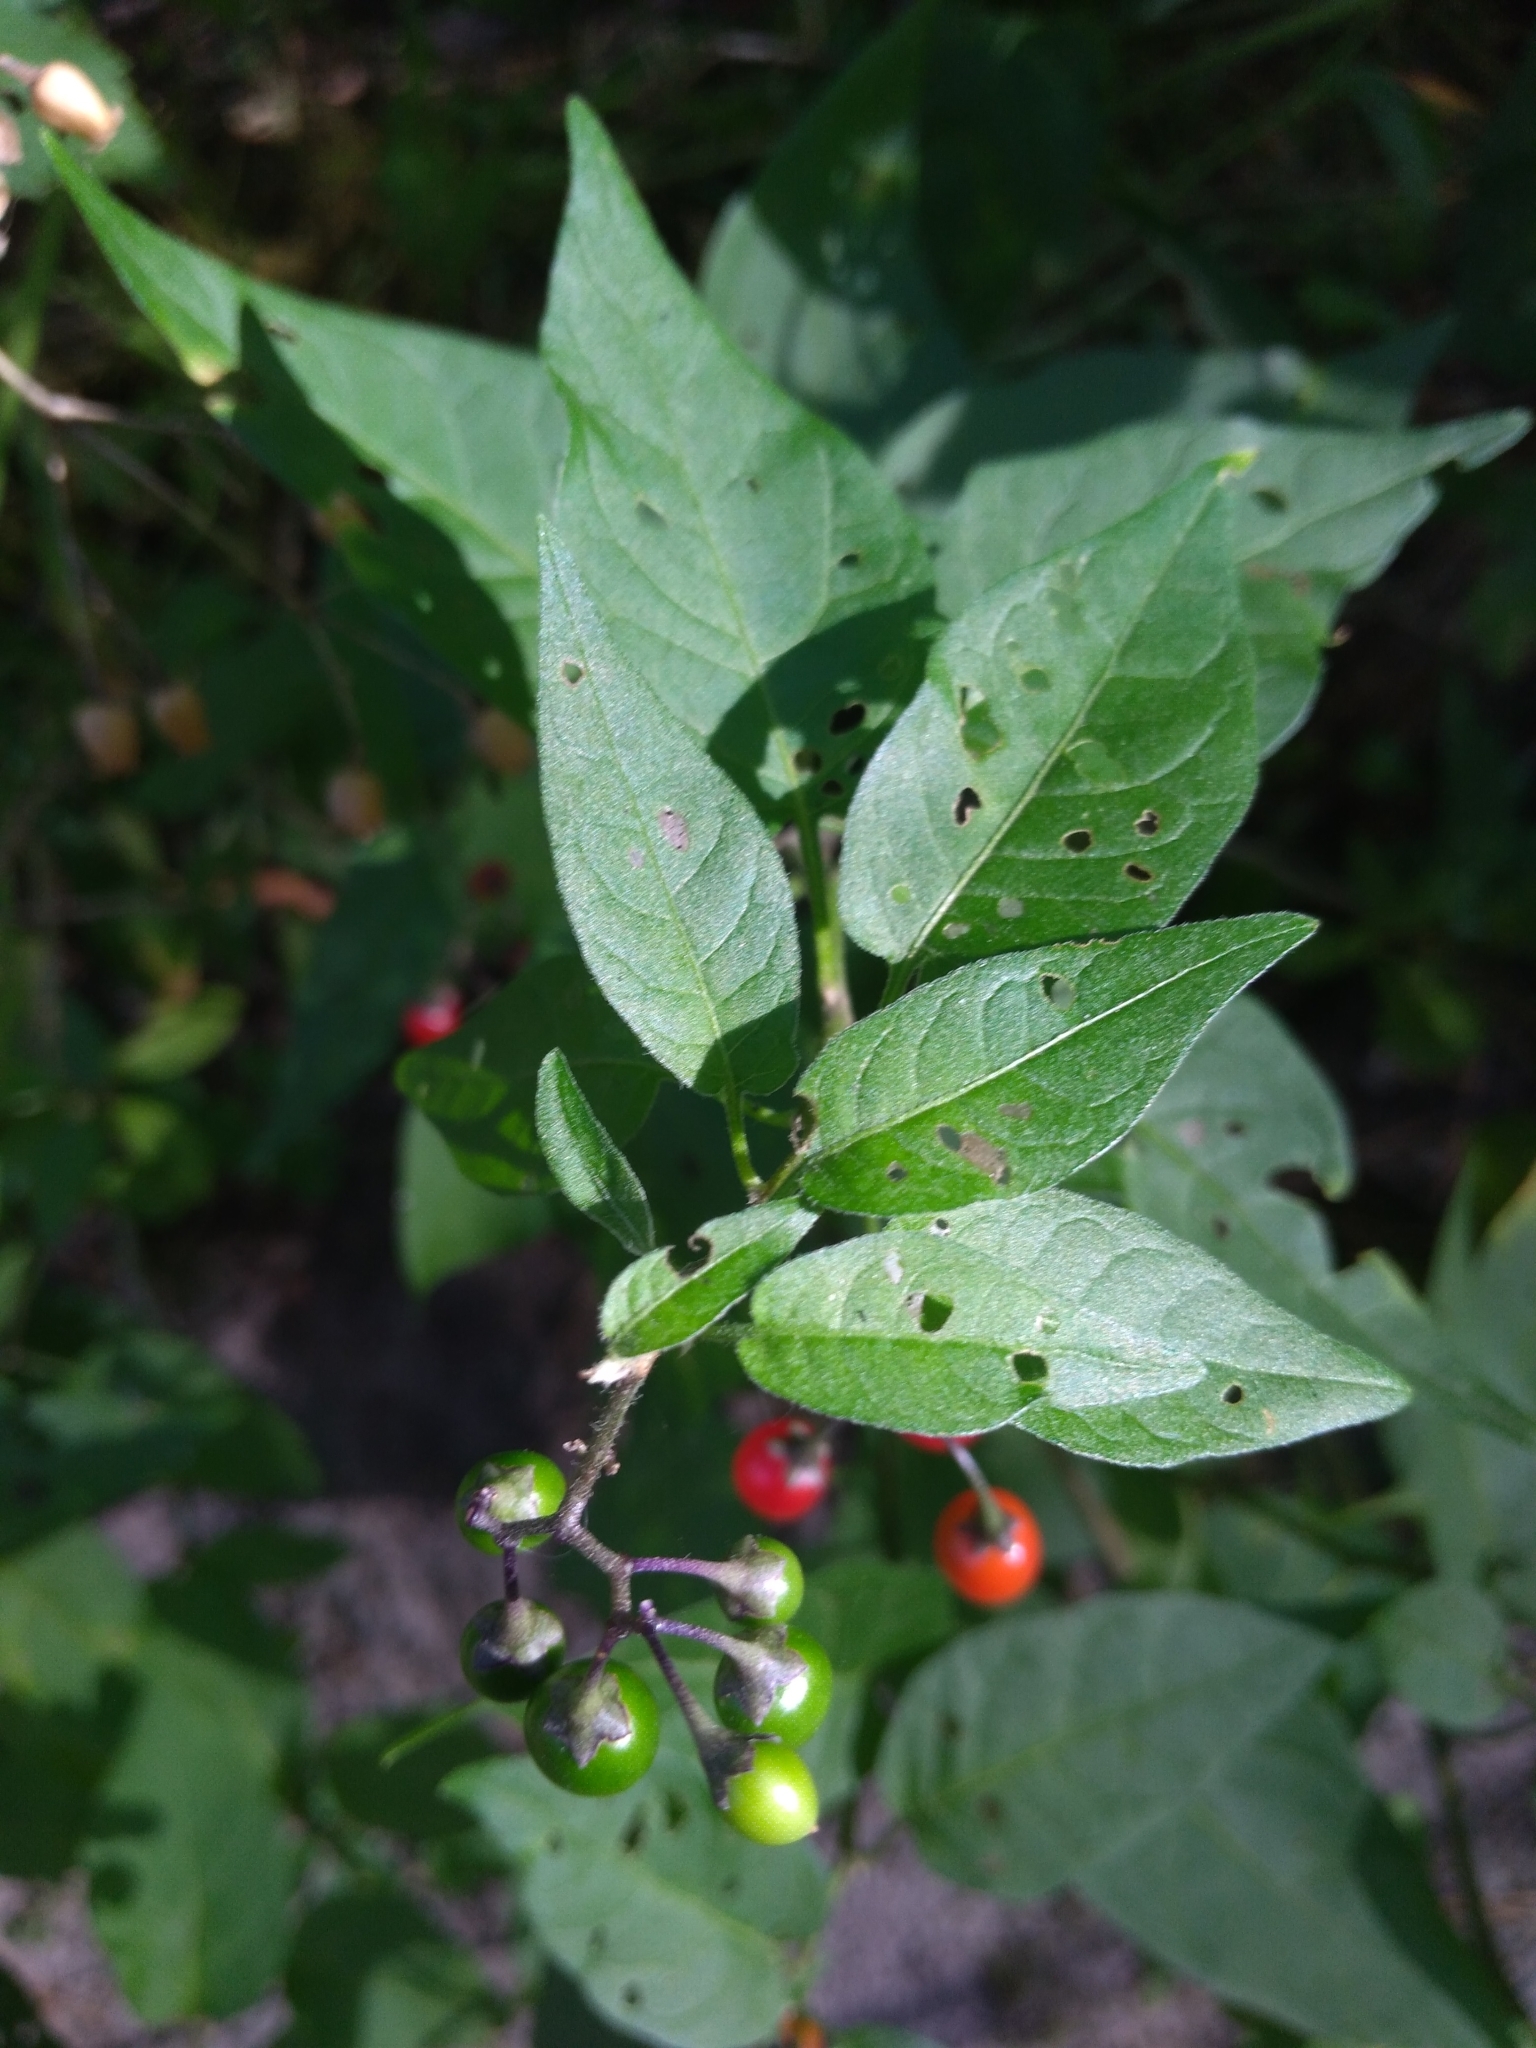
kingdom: Plantae
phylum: Tracheophyta
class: Magnoliopsida
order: Solanales
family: Solanaceae
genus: Solanum
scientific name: Solanum dulcamara
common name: Climbing nightshade
